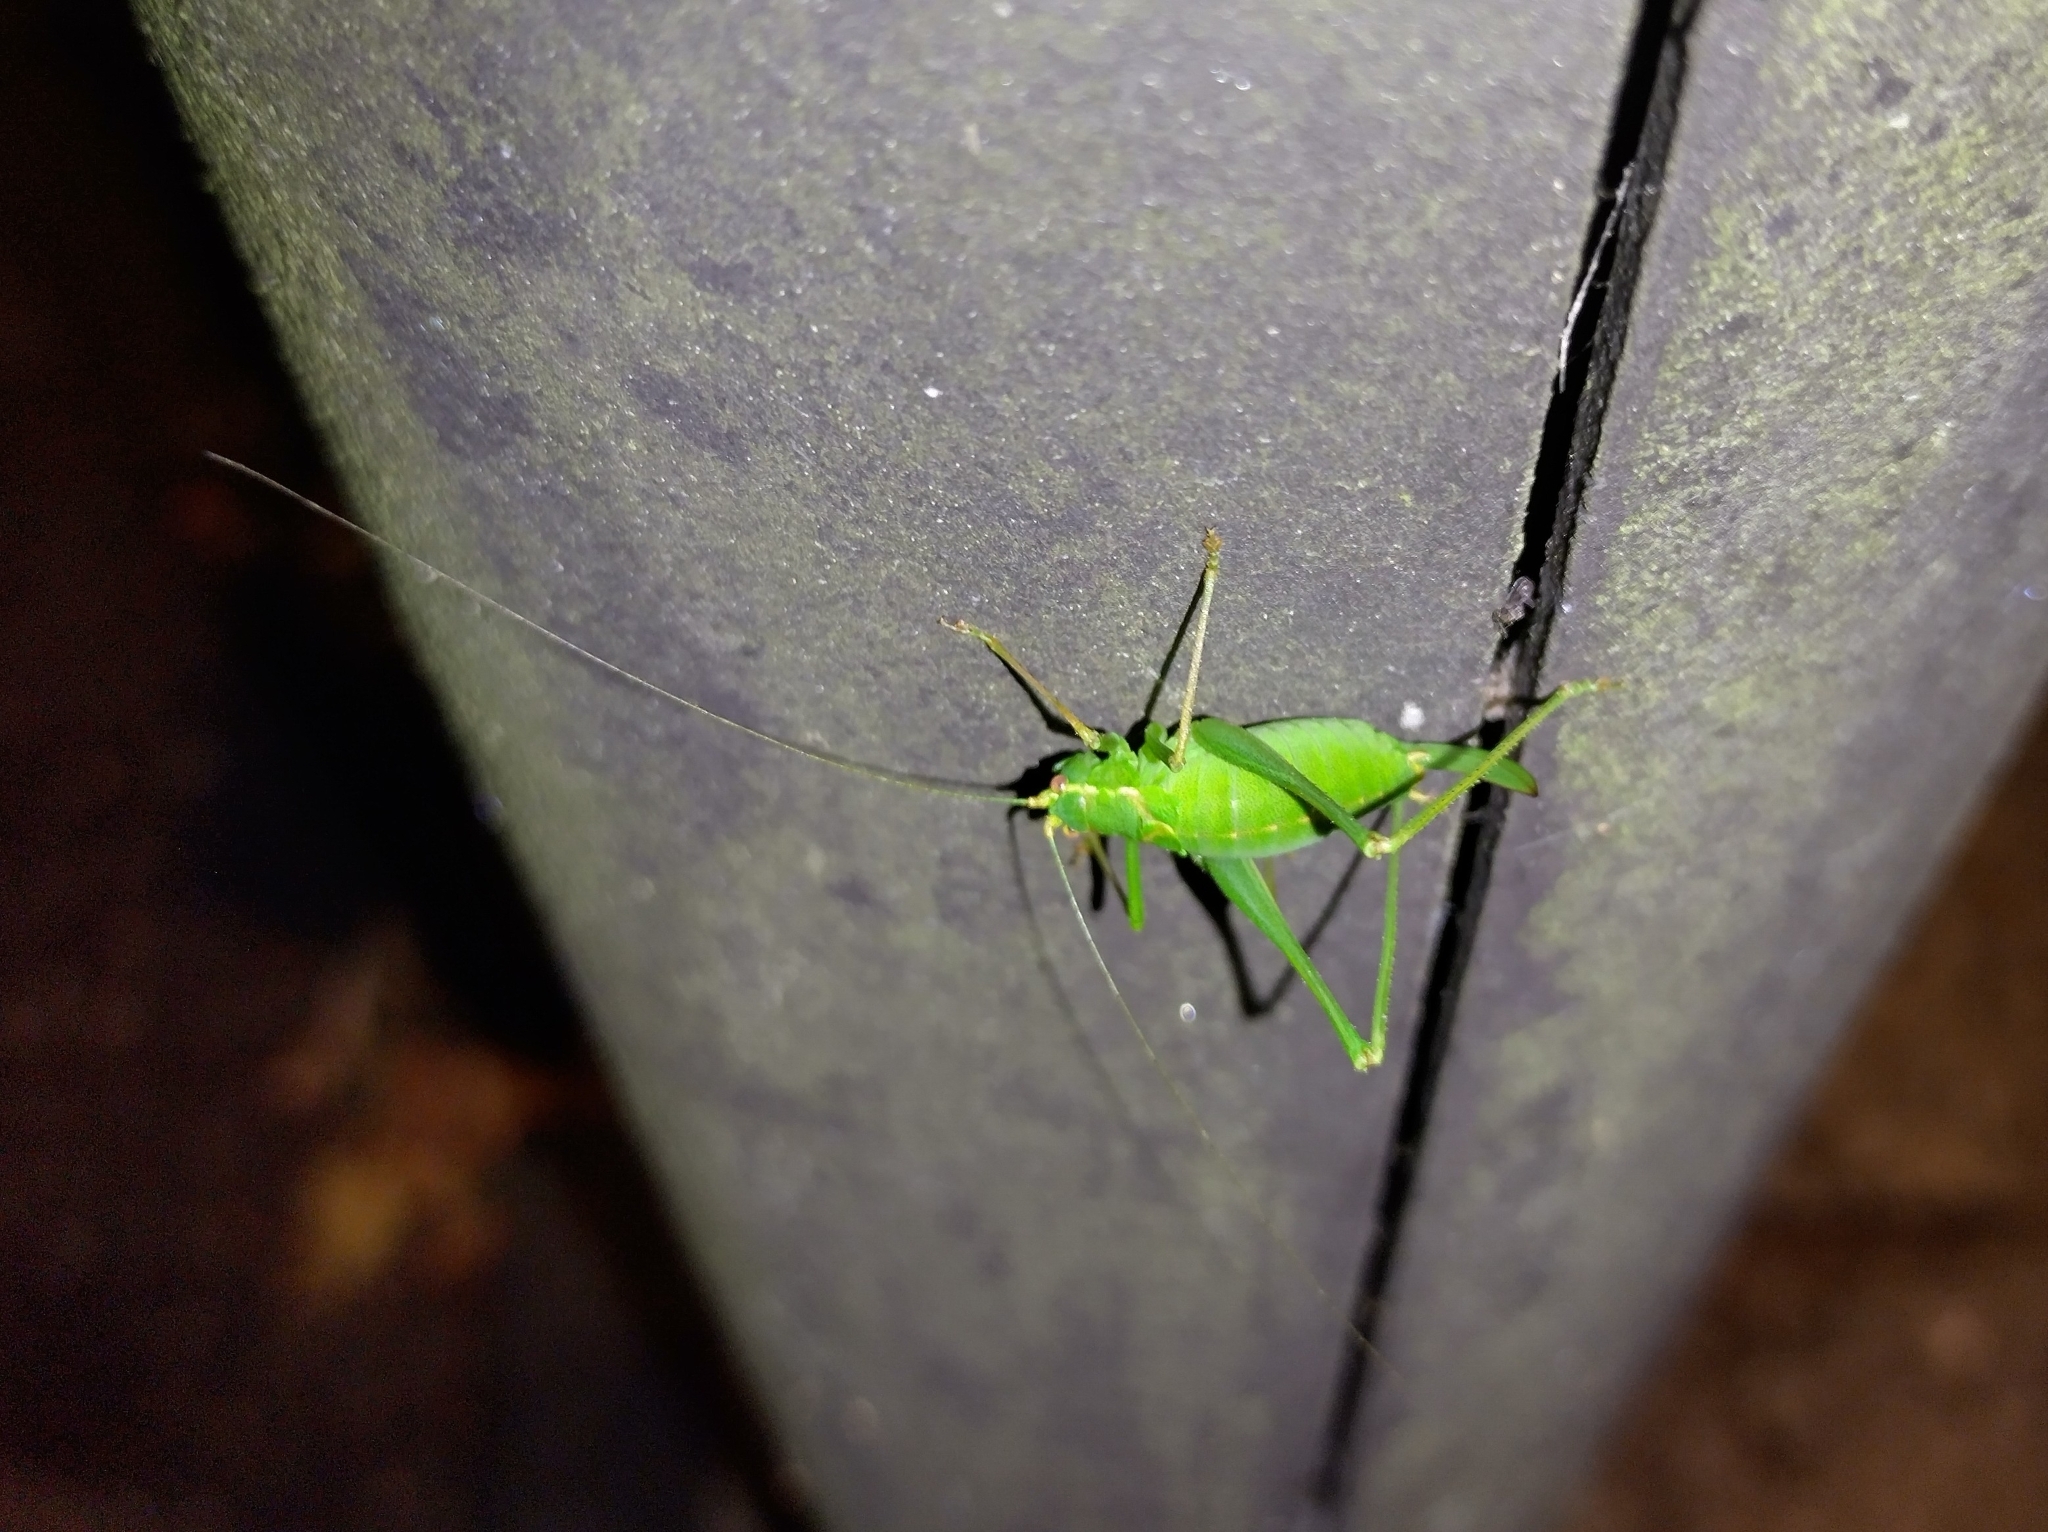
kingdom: Animalia
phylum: Arthropoda
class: Insecta
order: Orthoptera
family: Tettigoniidae
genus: Leptophyes
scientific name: Leptophyes punctatissima
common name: Speckled bush-cricket
